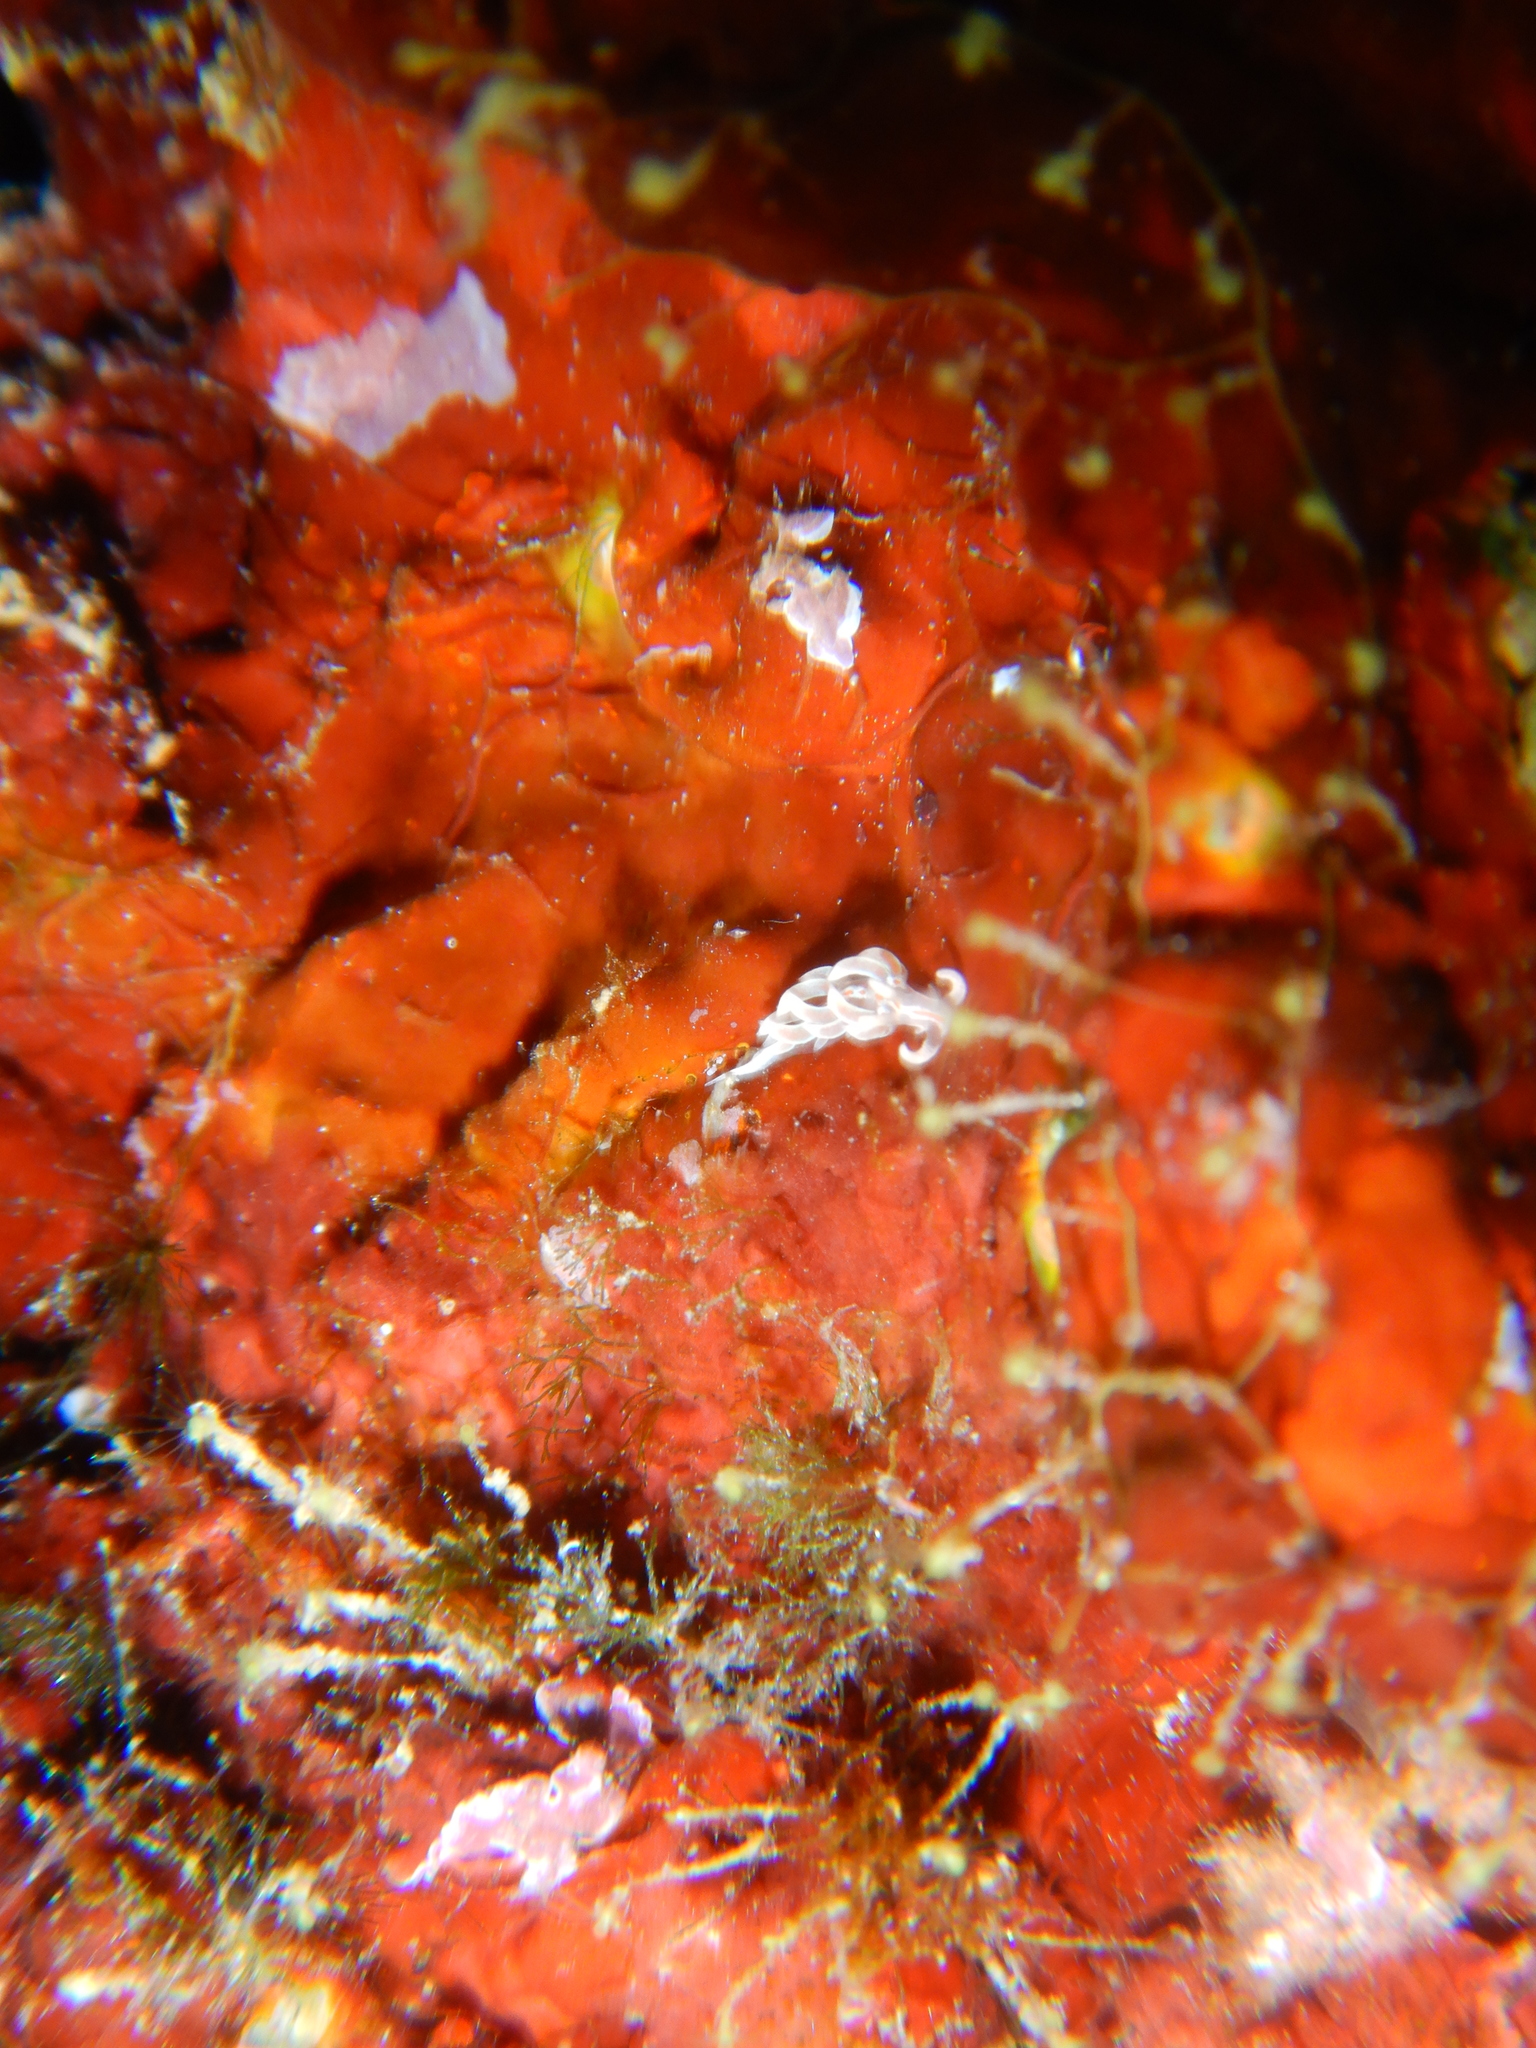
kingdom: Animalia
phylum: Mollusca
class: Gastropoda
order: Nudibranchia
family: Facelinidae
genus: Facelina
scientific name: Facelina rubrovittata
